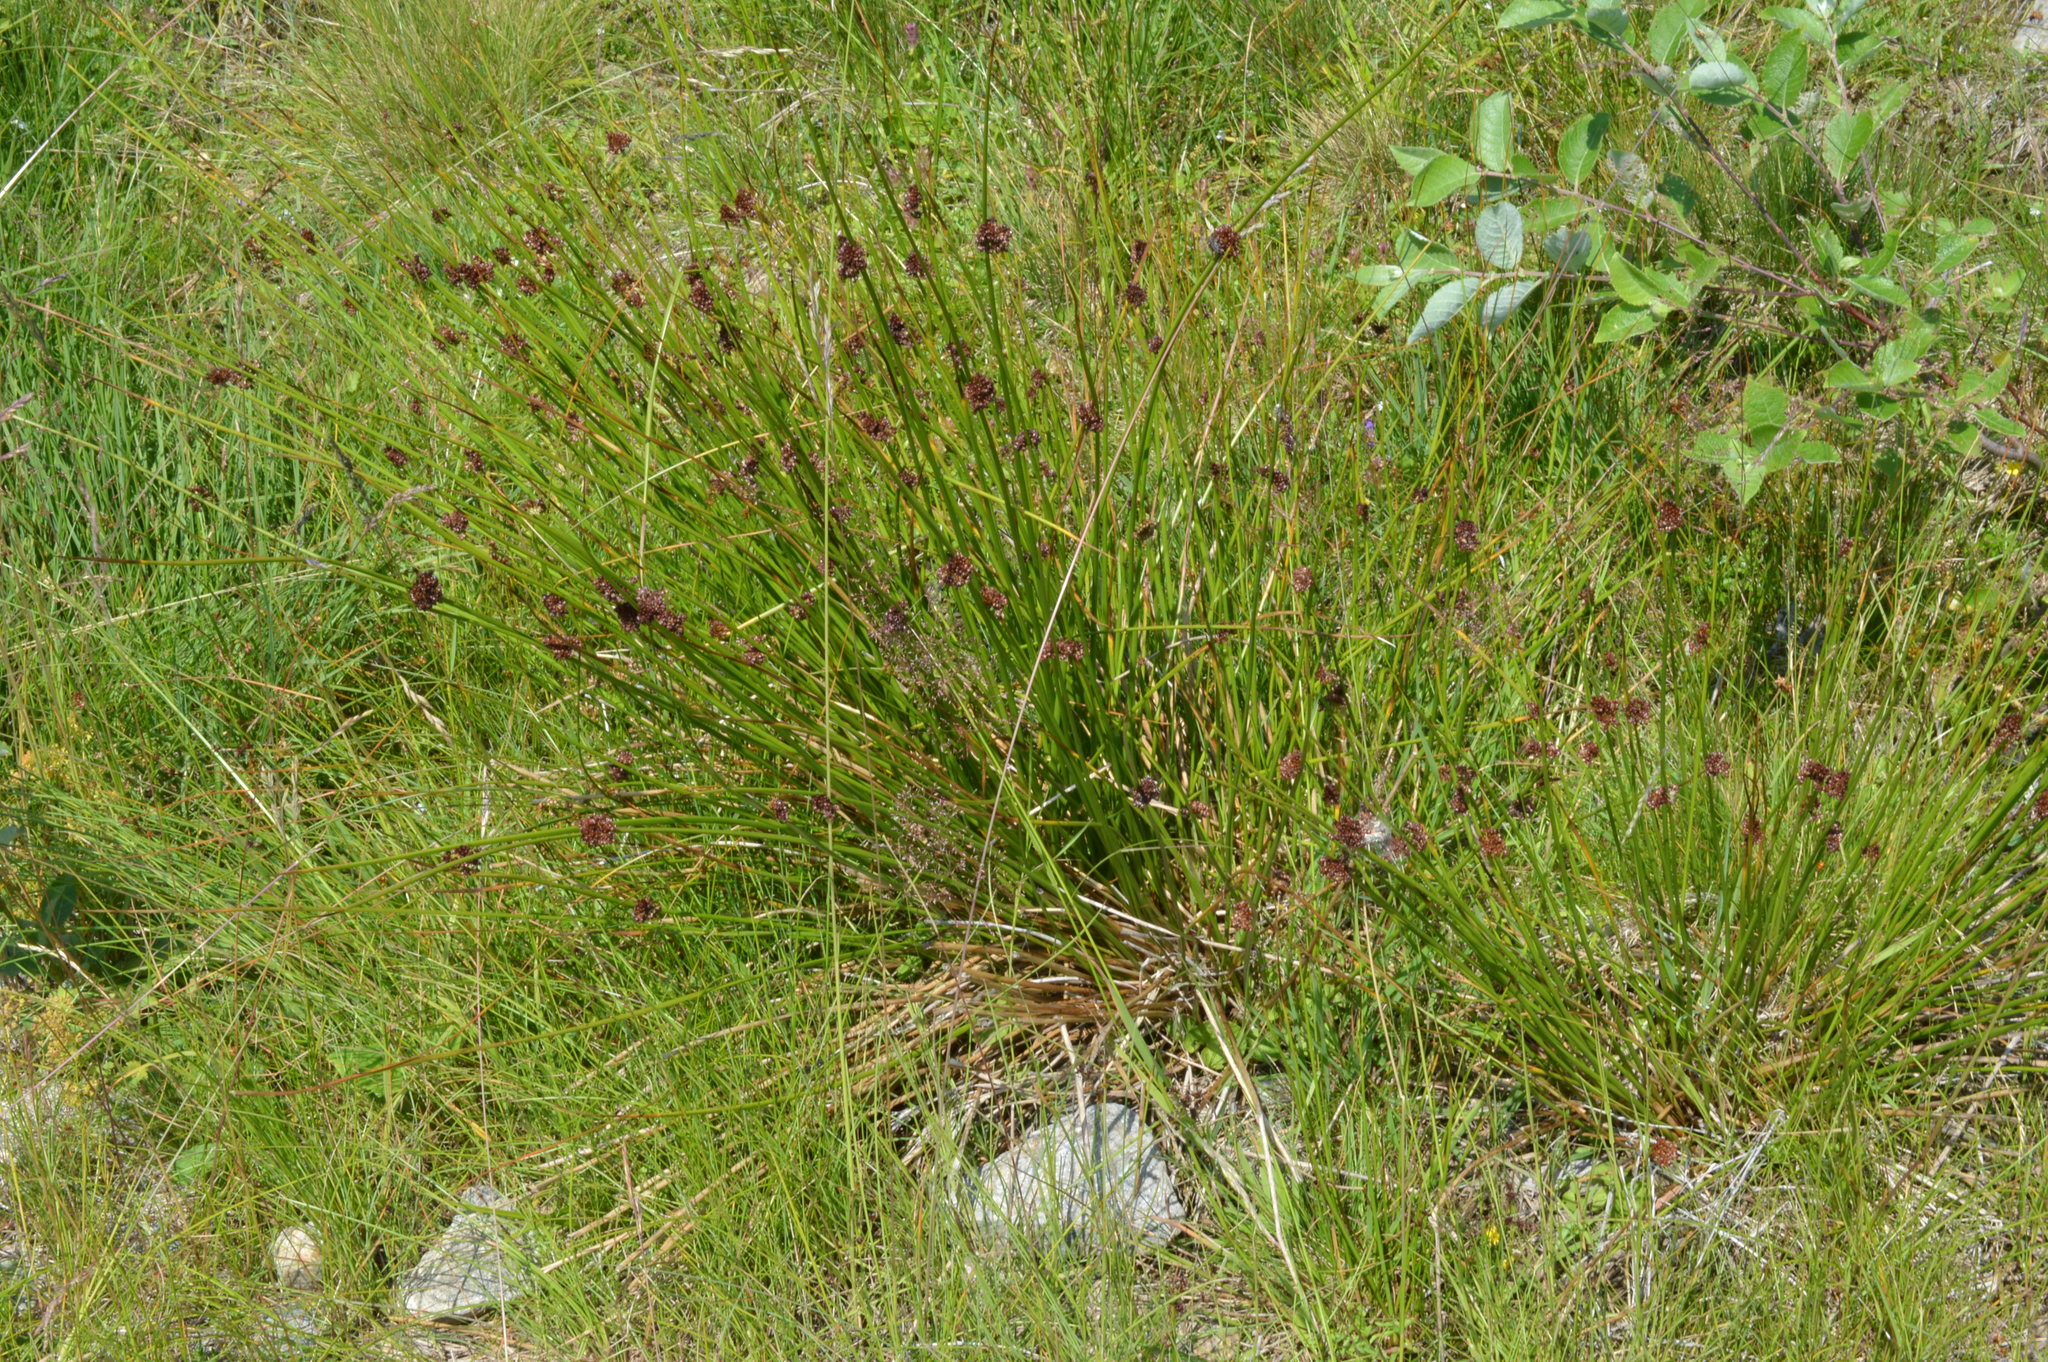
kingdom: Plantae
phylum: Tracheophyta
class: Liliopsida
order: Poales
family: Juncaceae
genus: Juncus
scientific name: Juncus conglomeratus
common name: Compact rush
